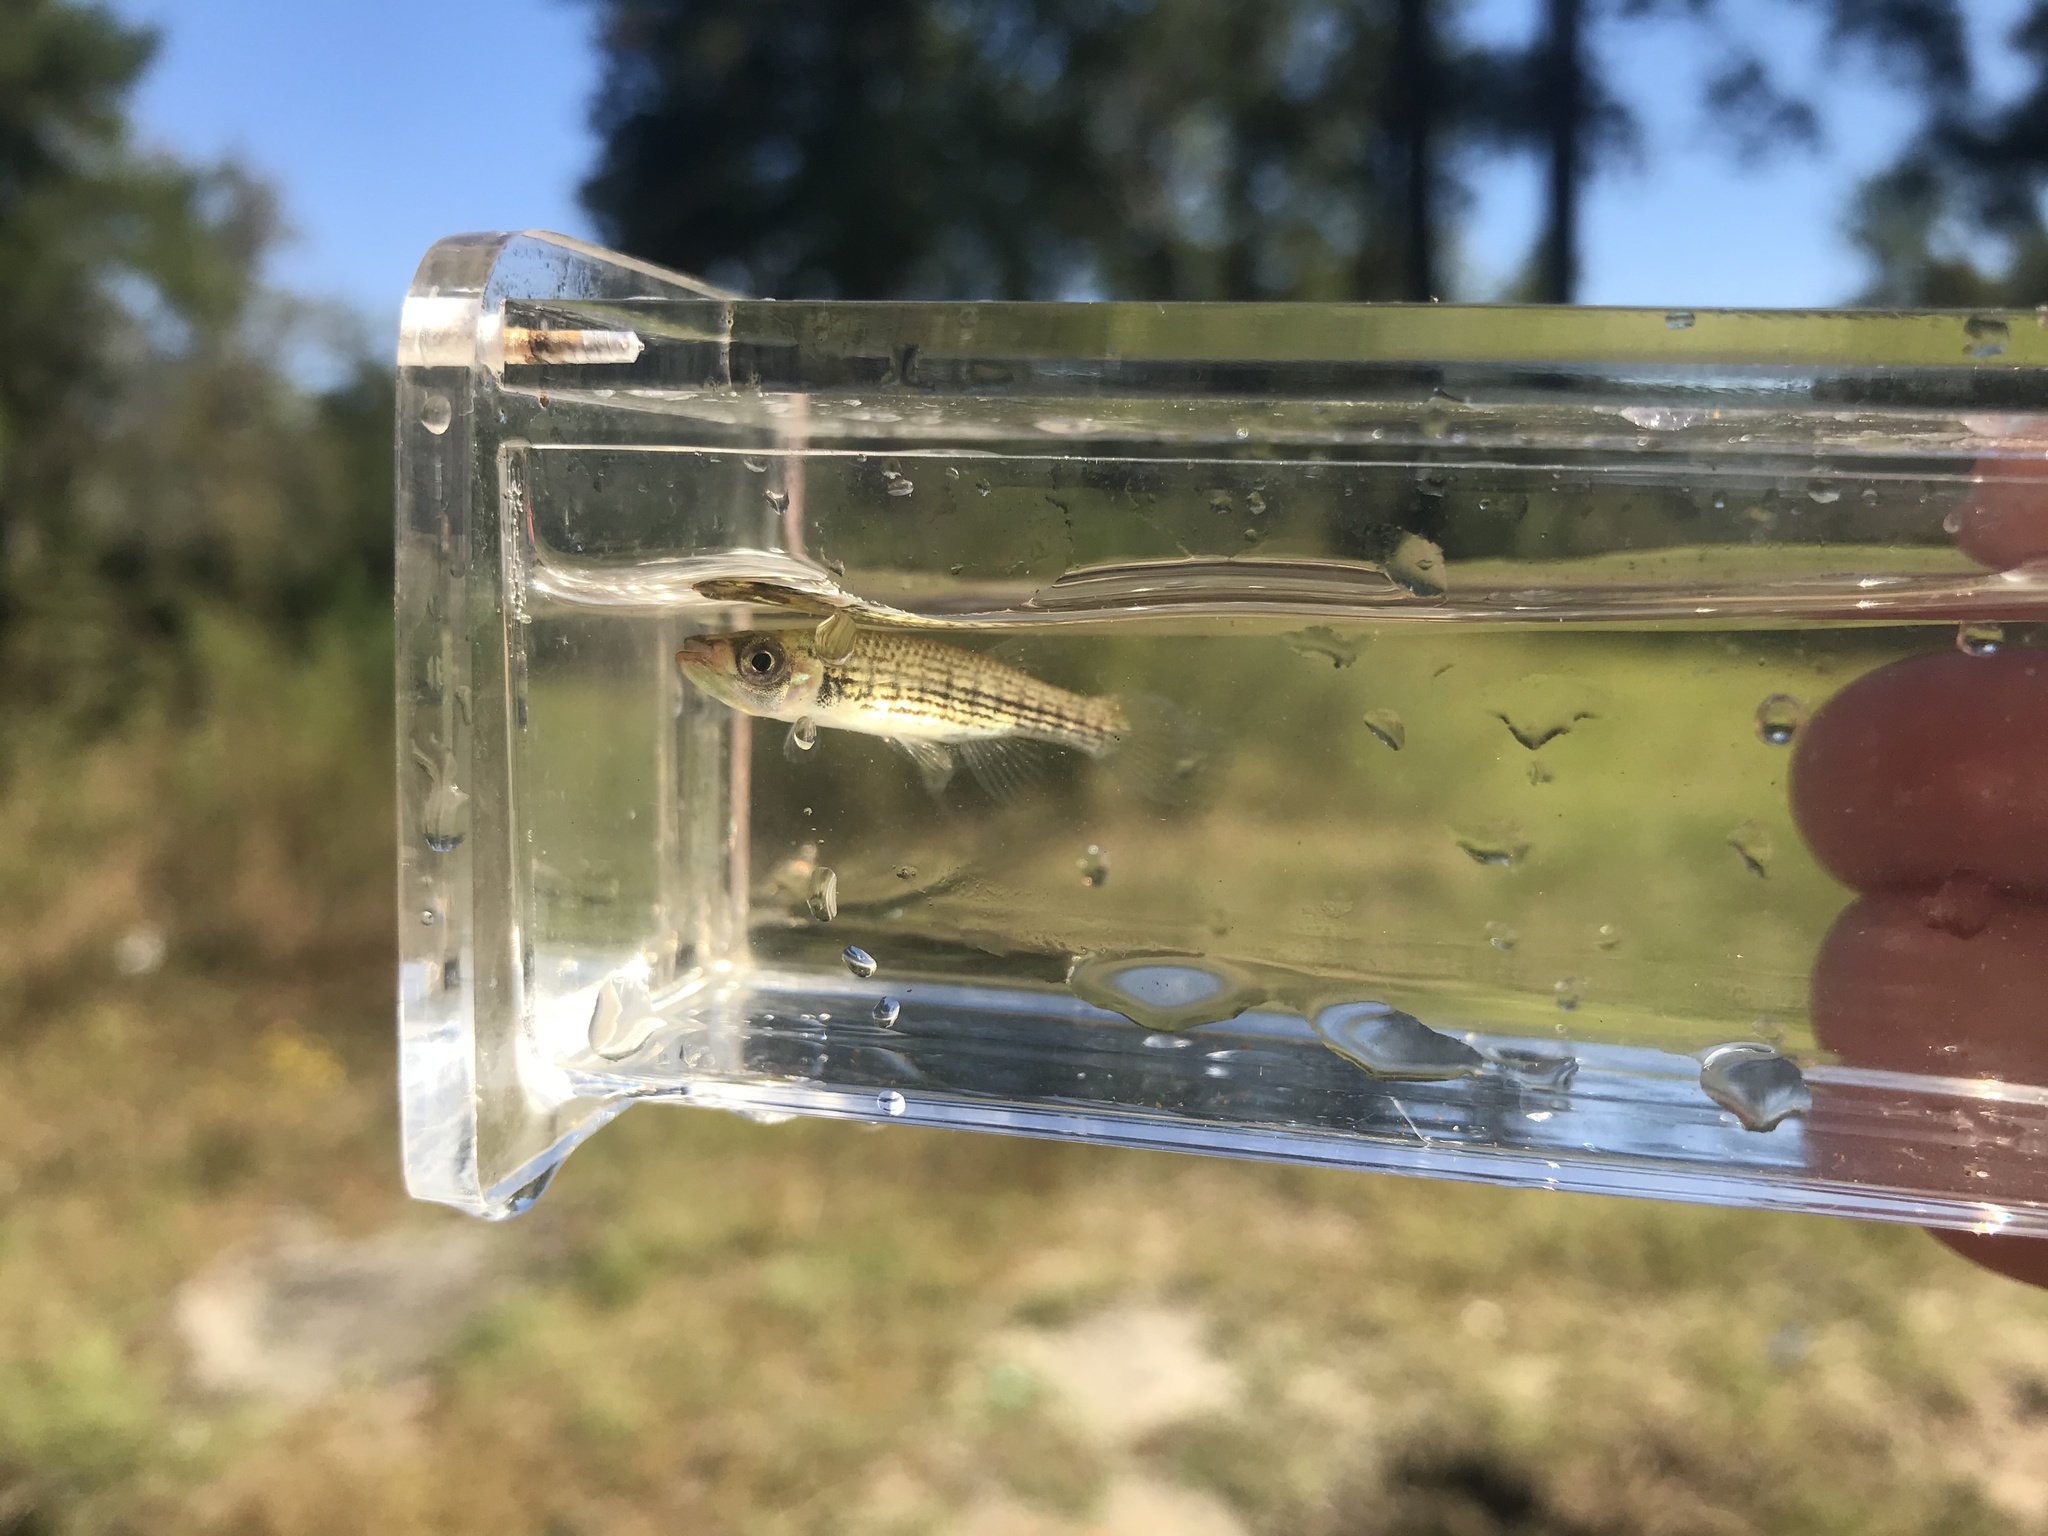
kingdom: Animalia
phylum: Chordata
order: Cyprinodontiformes
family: Fundulidae
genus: Fundulus
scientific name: Fundulus lineolatus
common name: Lined topminnow
